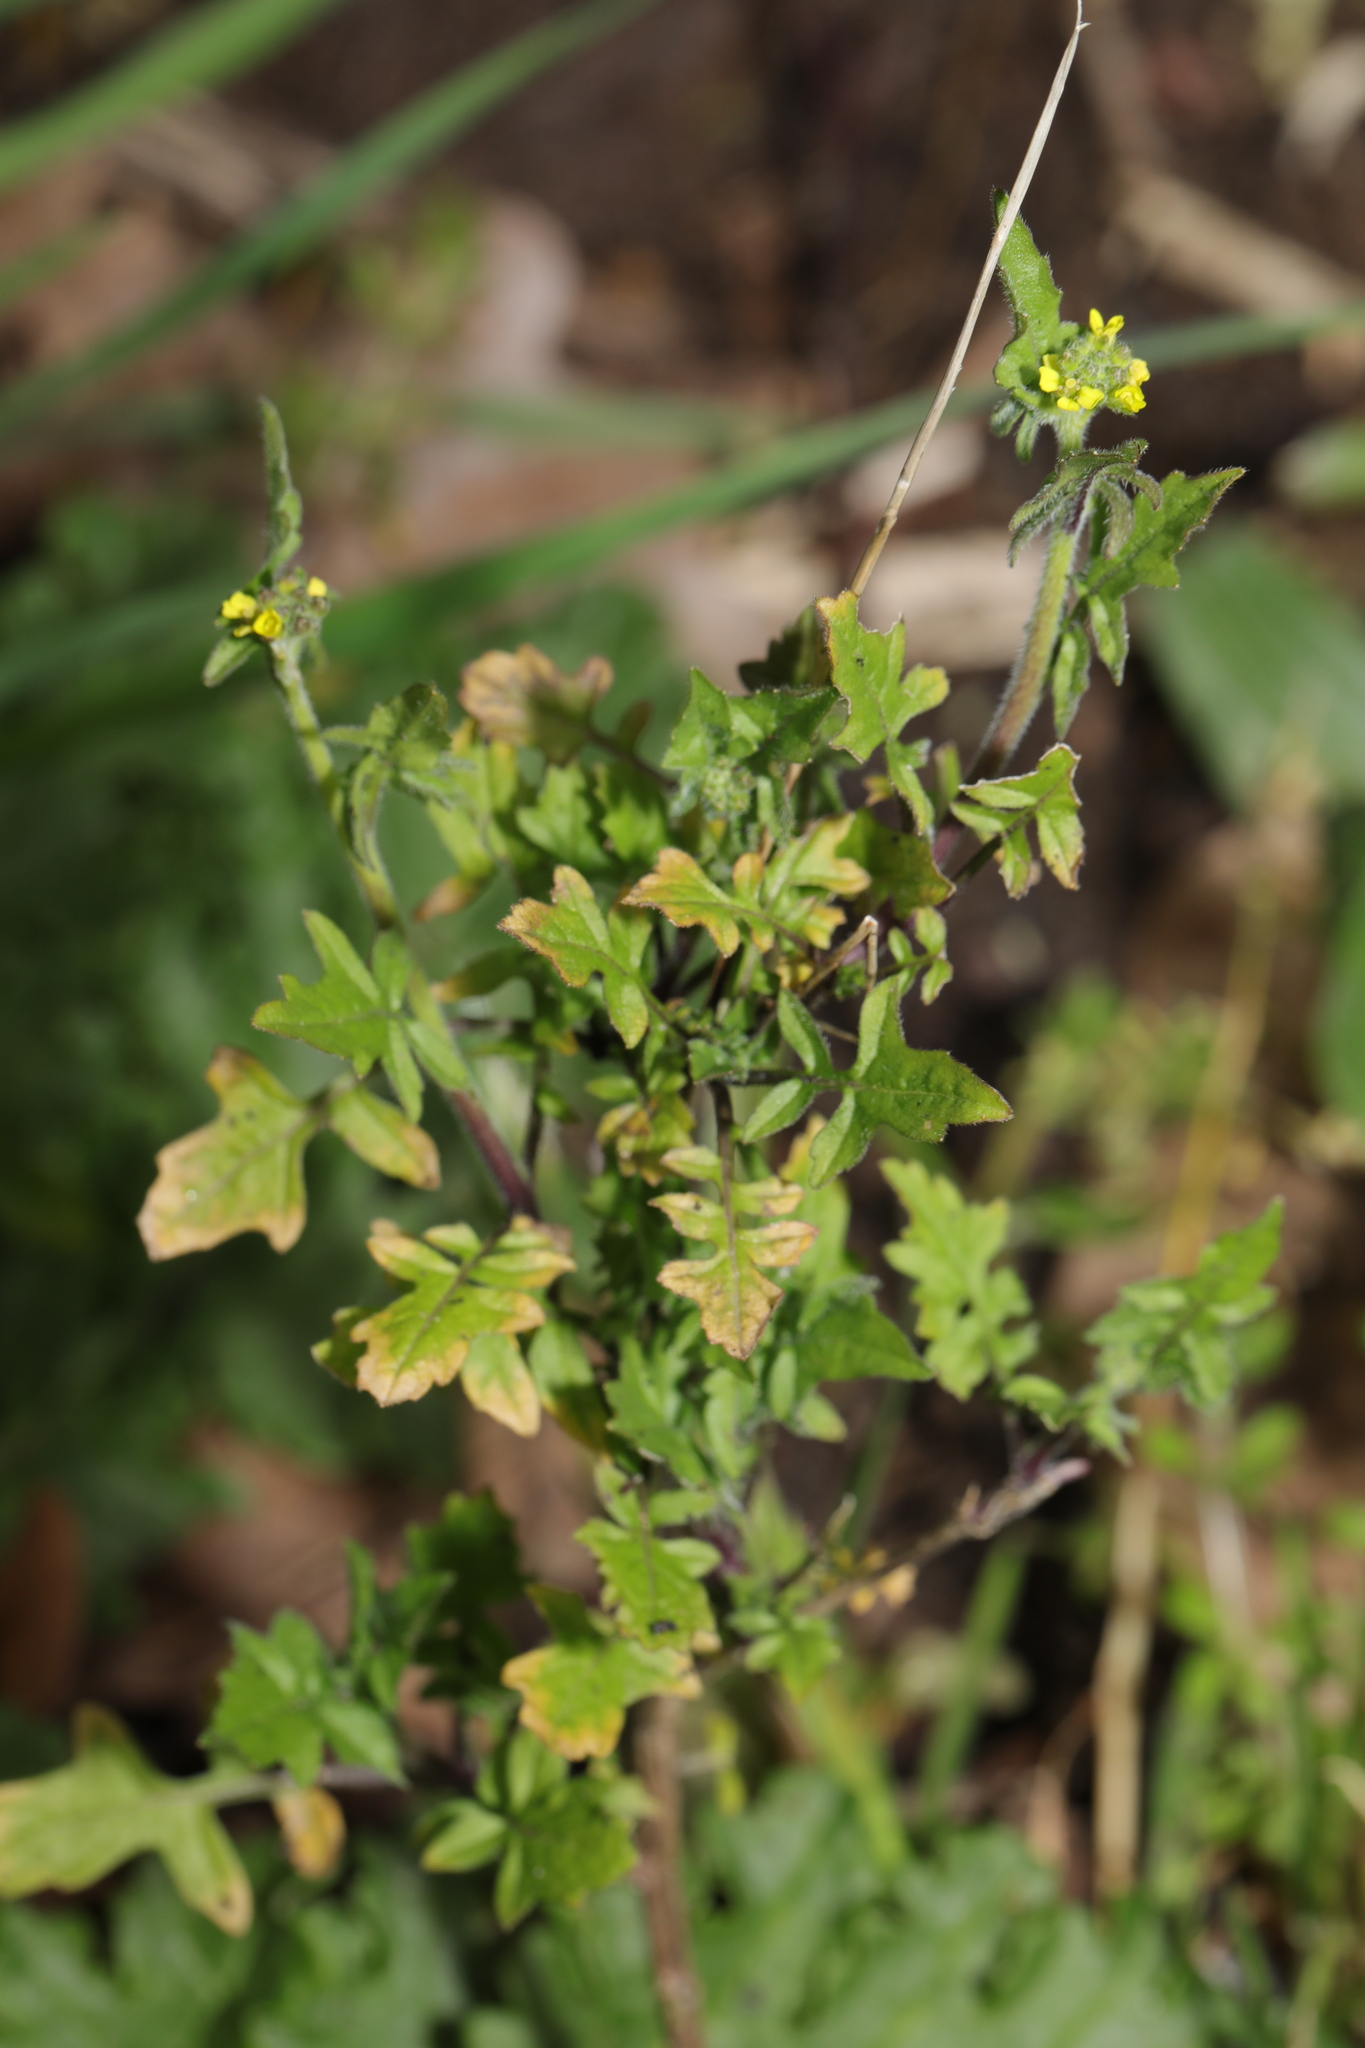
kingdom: Plantae
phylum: Tracheophyta
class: Magnoliopsida
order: Brassicales
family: Brassicaceae
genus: Sisymbrium
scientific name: Sisymbrium officinale
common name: Hedge mustard
